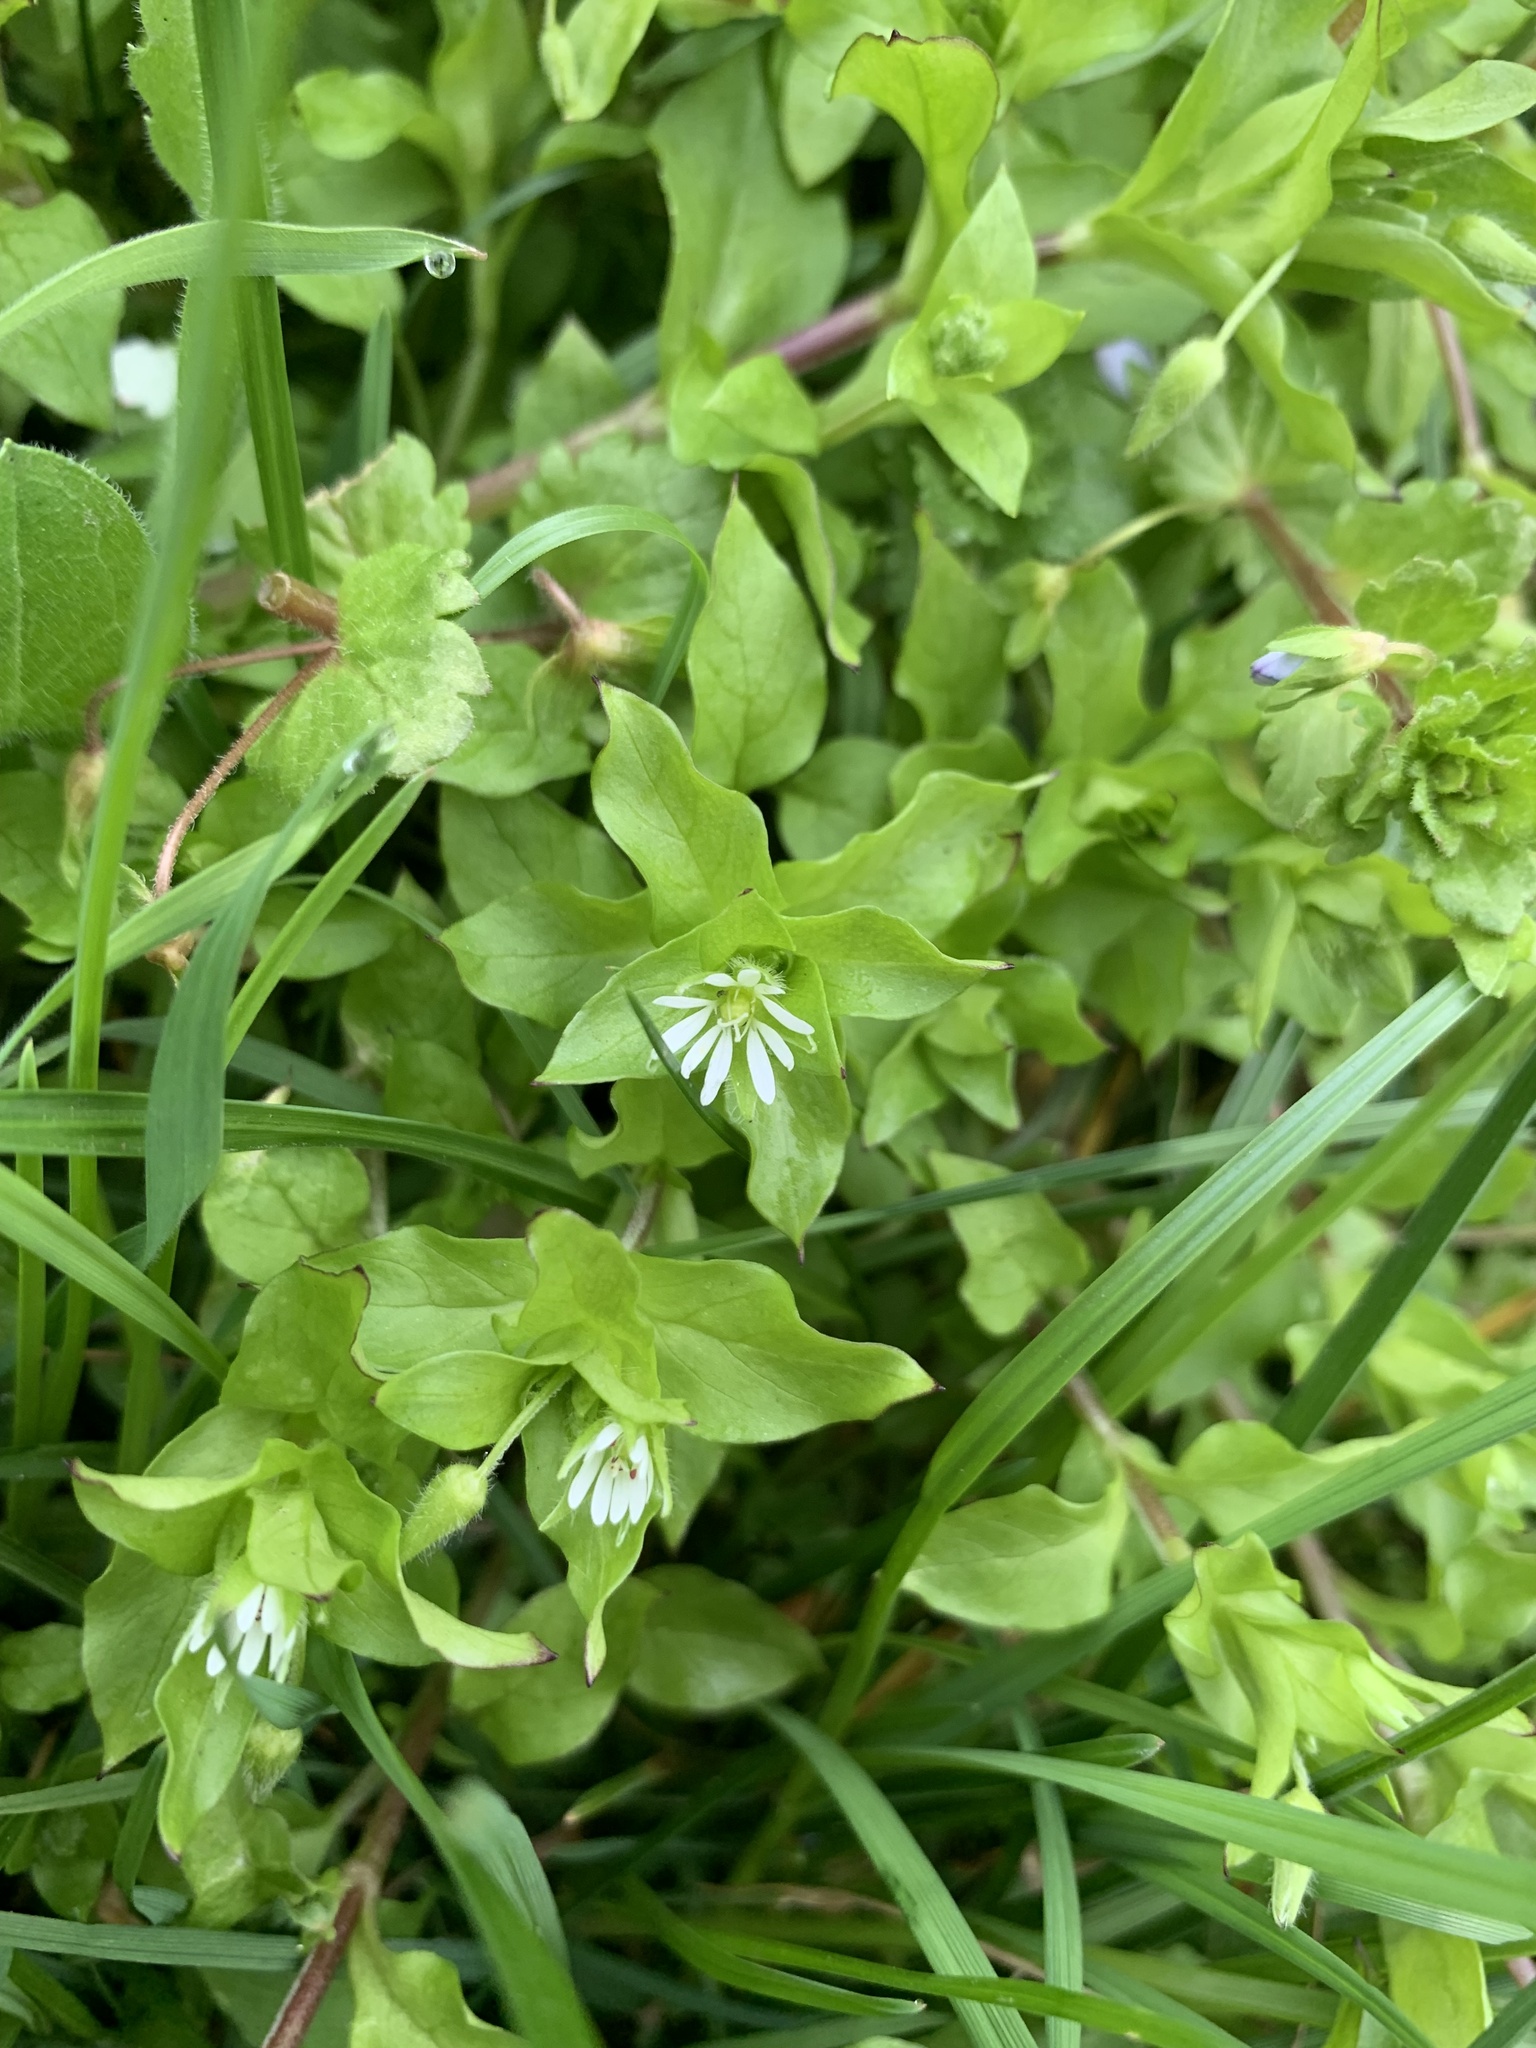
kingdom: Plantae
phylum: Tracheophyta
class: Magnoliopsida
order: Caryophyllales
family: Caryophyllaceae
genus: Stellaria
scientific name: Stellaria media
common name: Common chickweed
